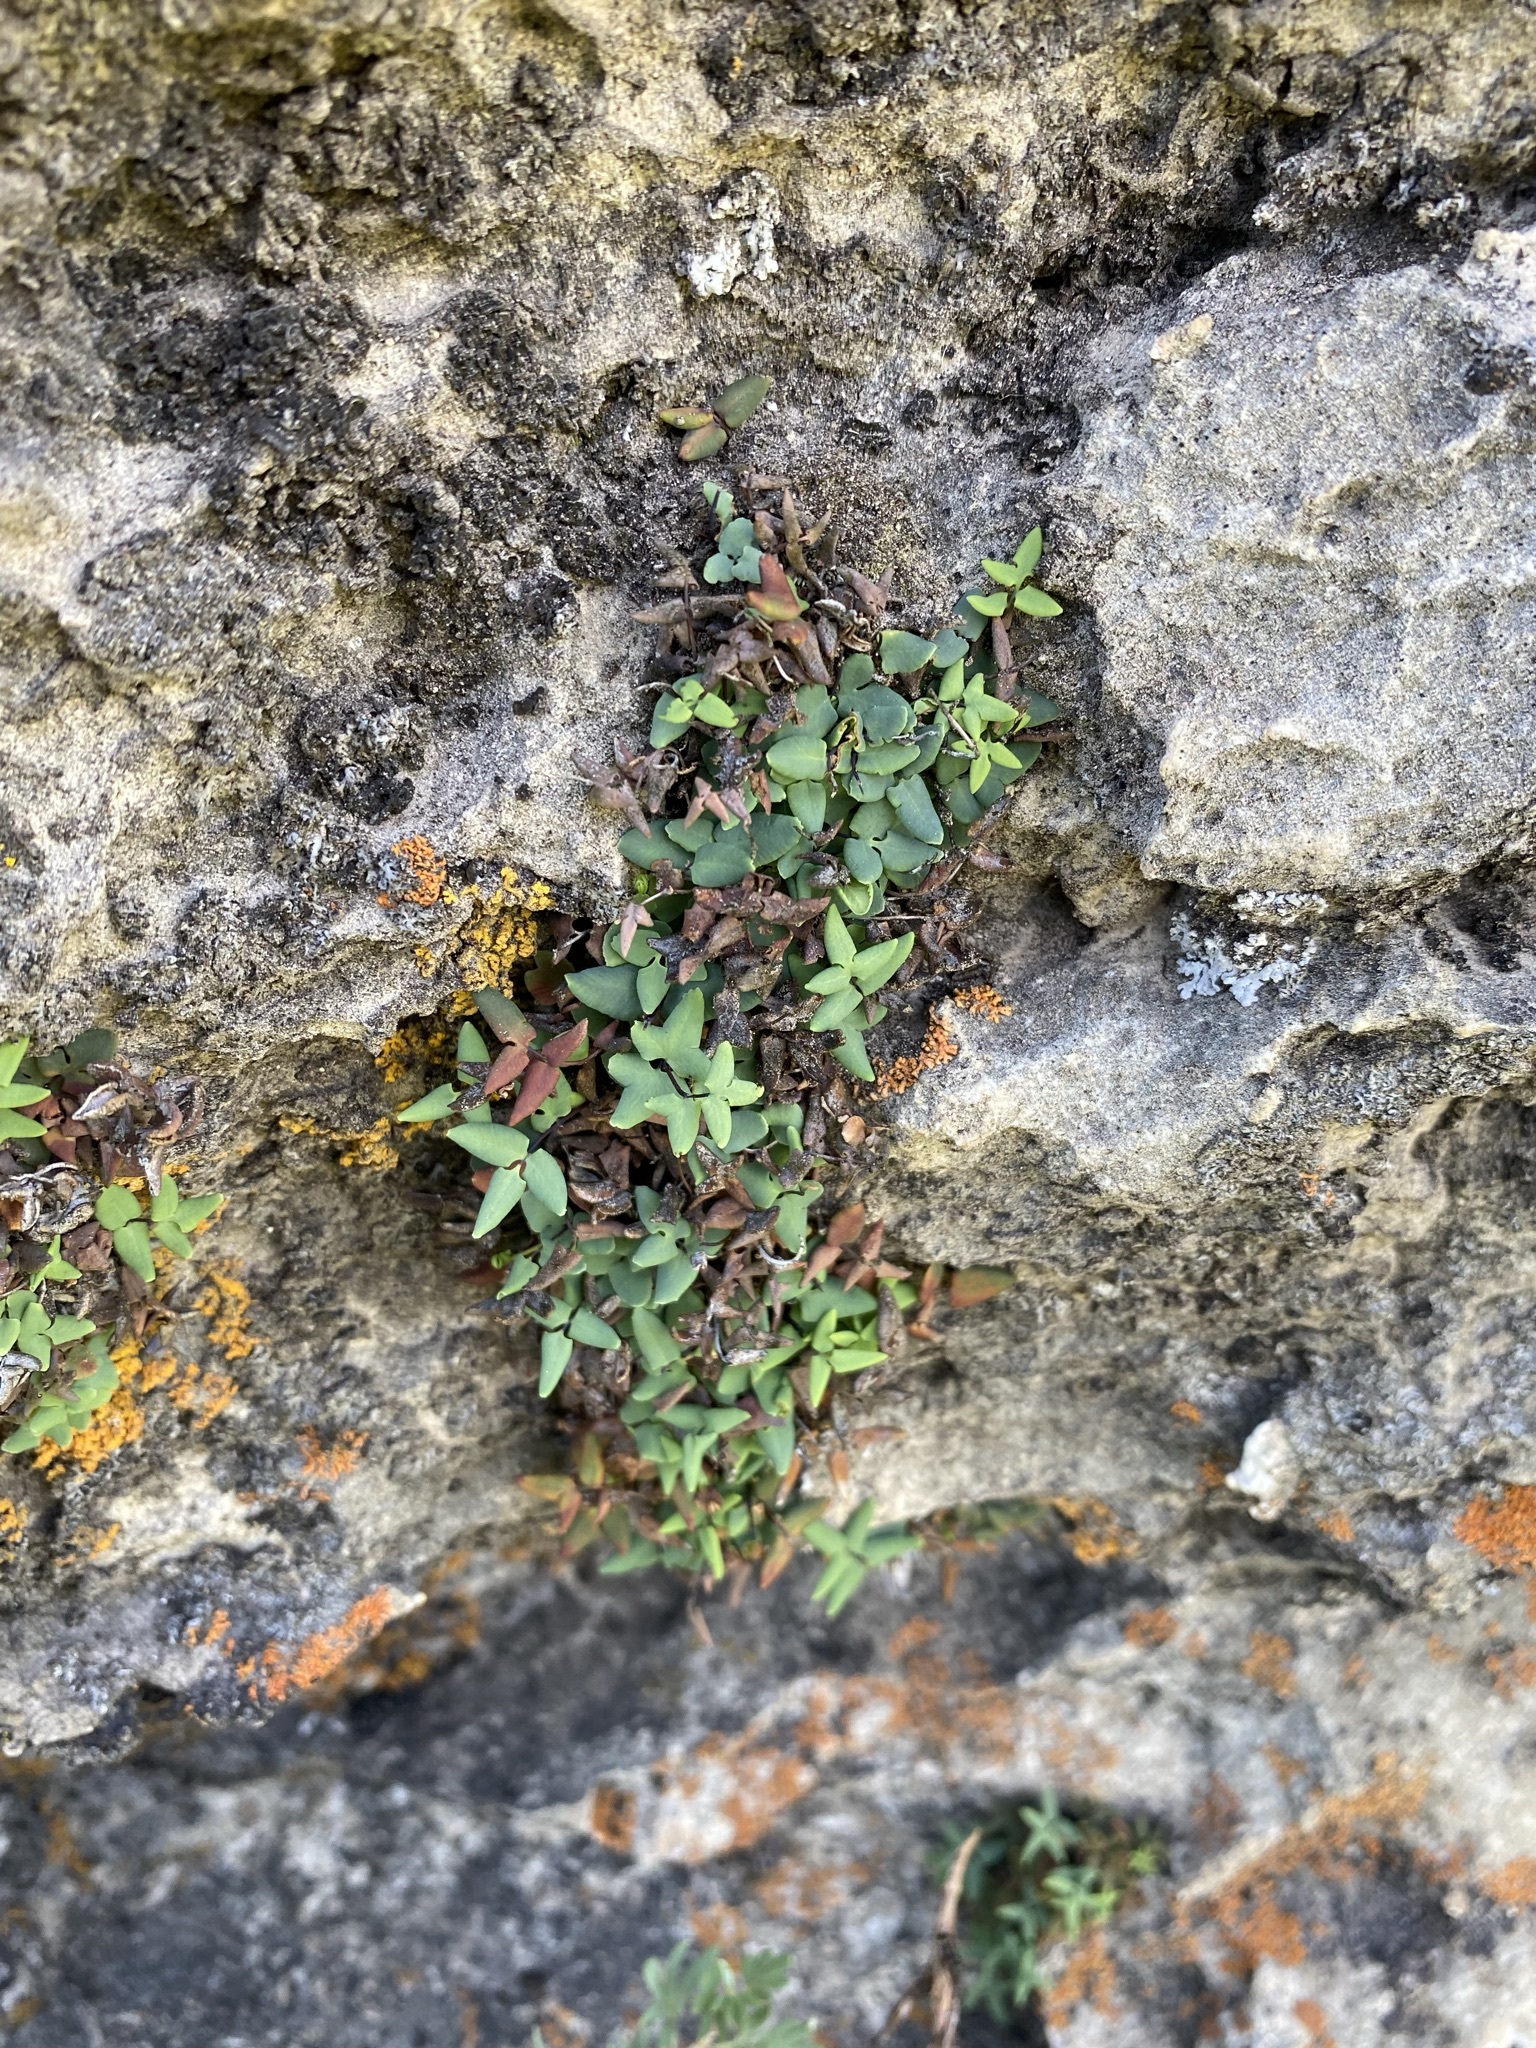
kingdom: Plantae
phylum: Tracheophyta
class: Polypodiopsida
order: Polypodiales
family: Pteridaceae
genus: Pellaea
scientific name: Pellaea glabella
